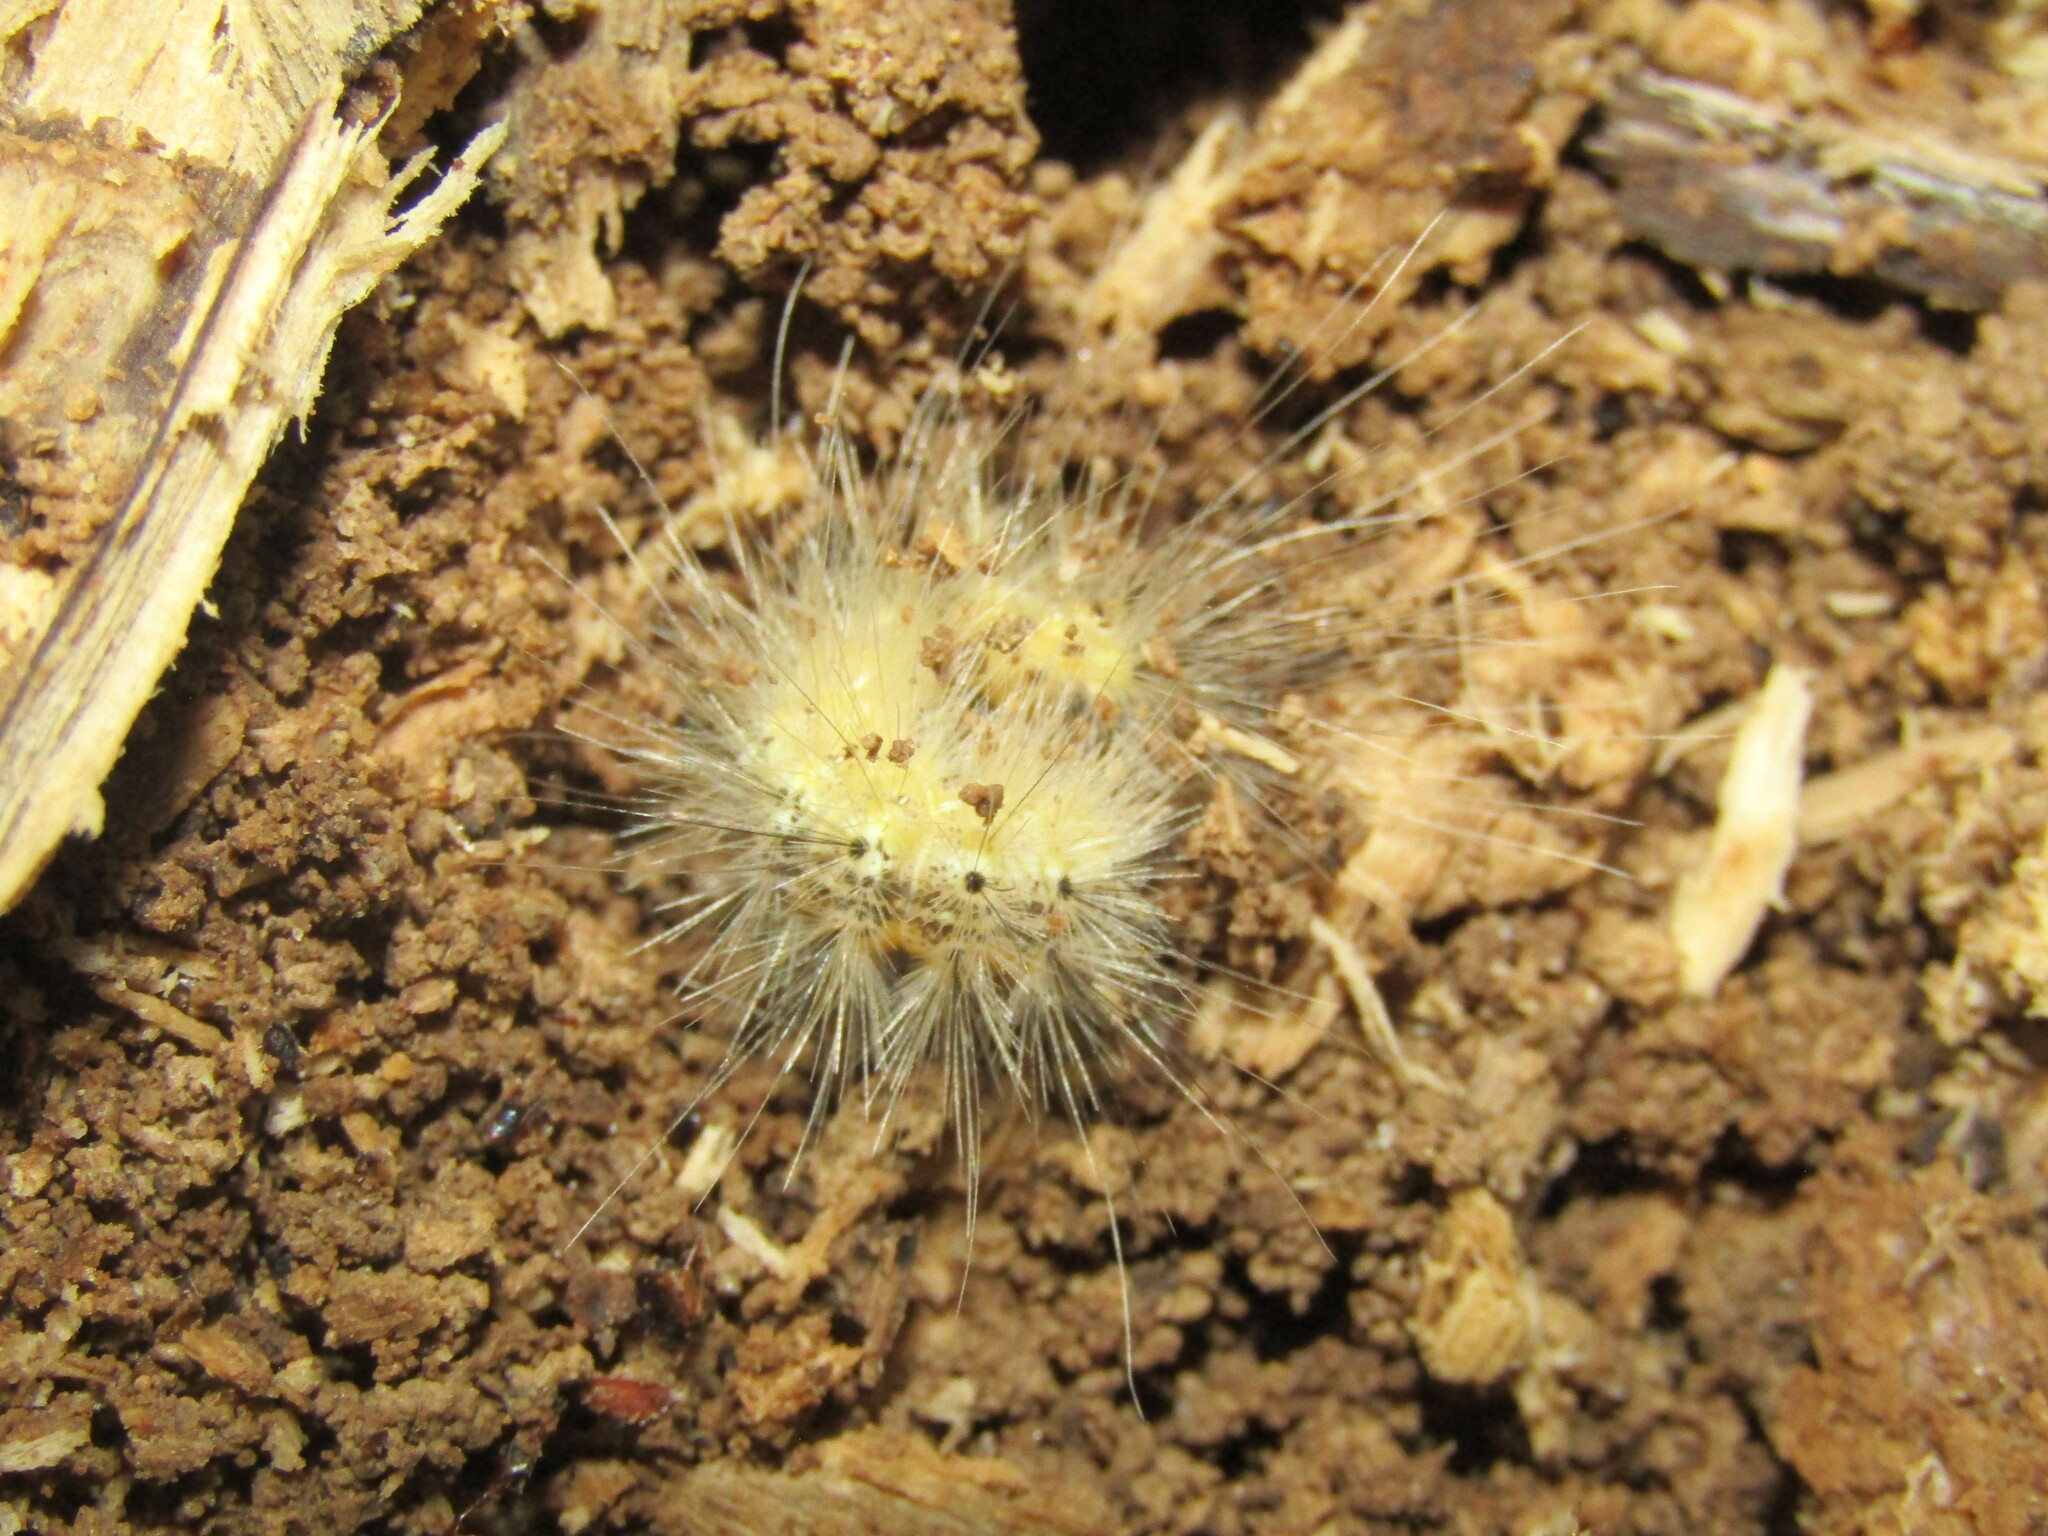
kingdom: Animalia
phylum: Arthropoda
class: Insecta
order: Lepidoptera
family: Erebidae
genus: Hyphantria
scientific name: Hyphantria cunea
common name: American white moth
